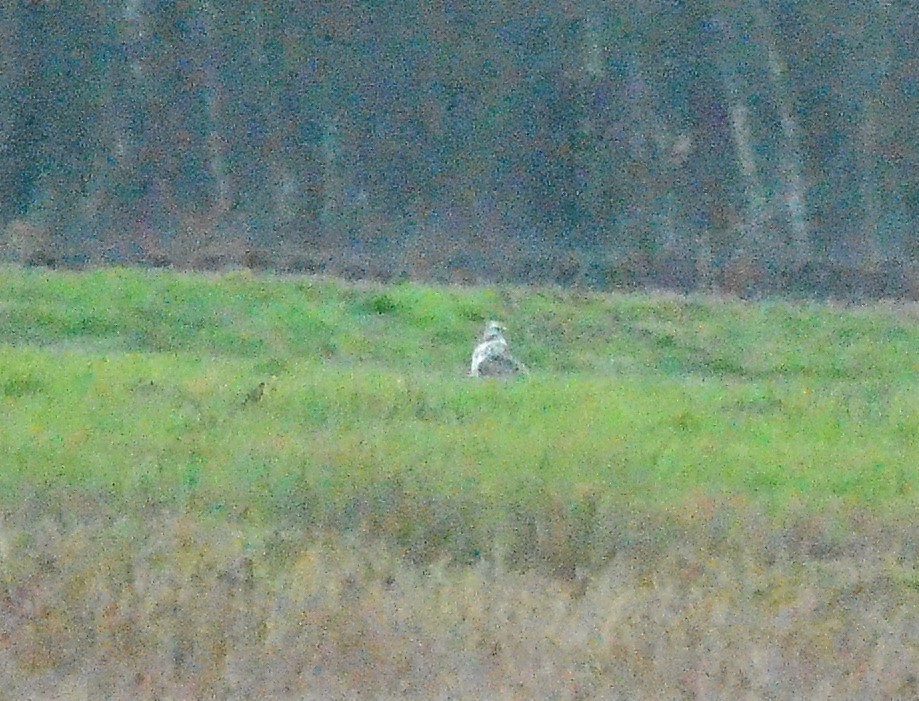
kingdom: Animalia
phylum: Chordata
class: Aves
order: Accipitriformes
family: Accipitridae
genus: Buteo
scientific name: Buteo buteo
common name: Common buzzard
